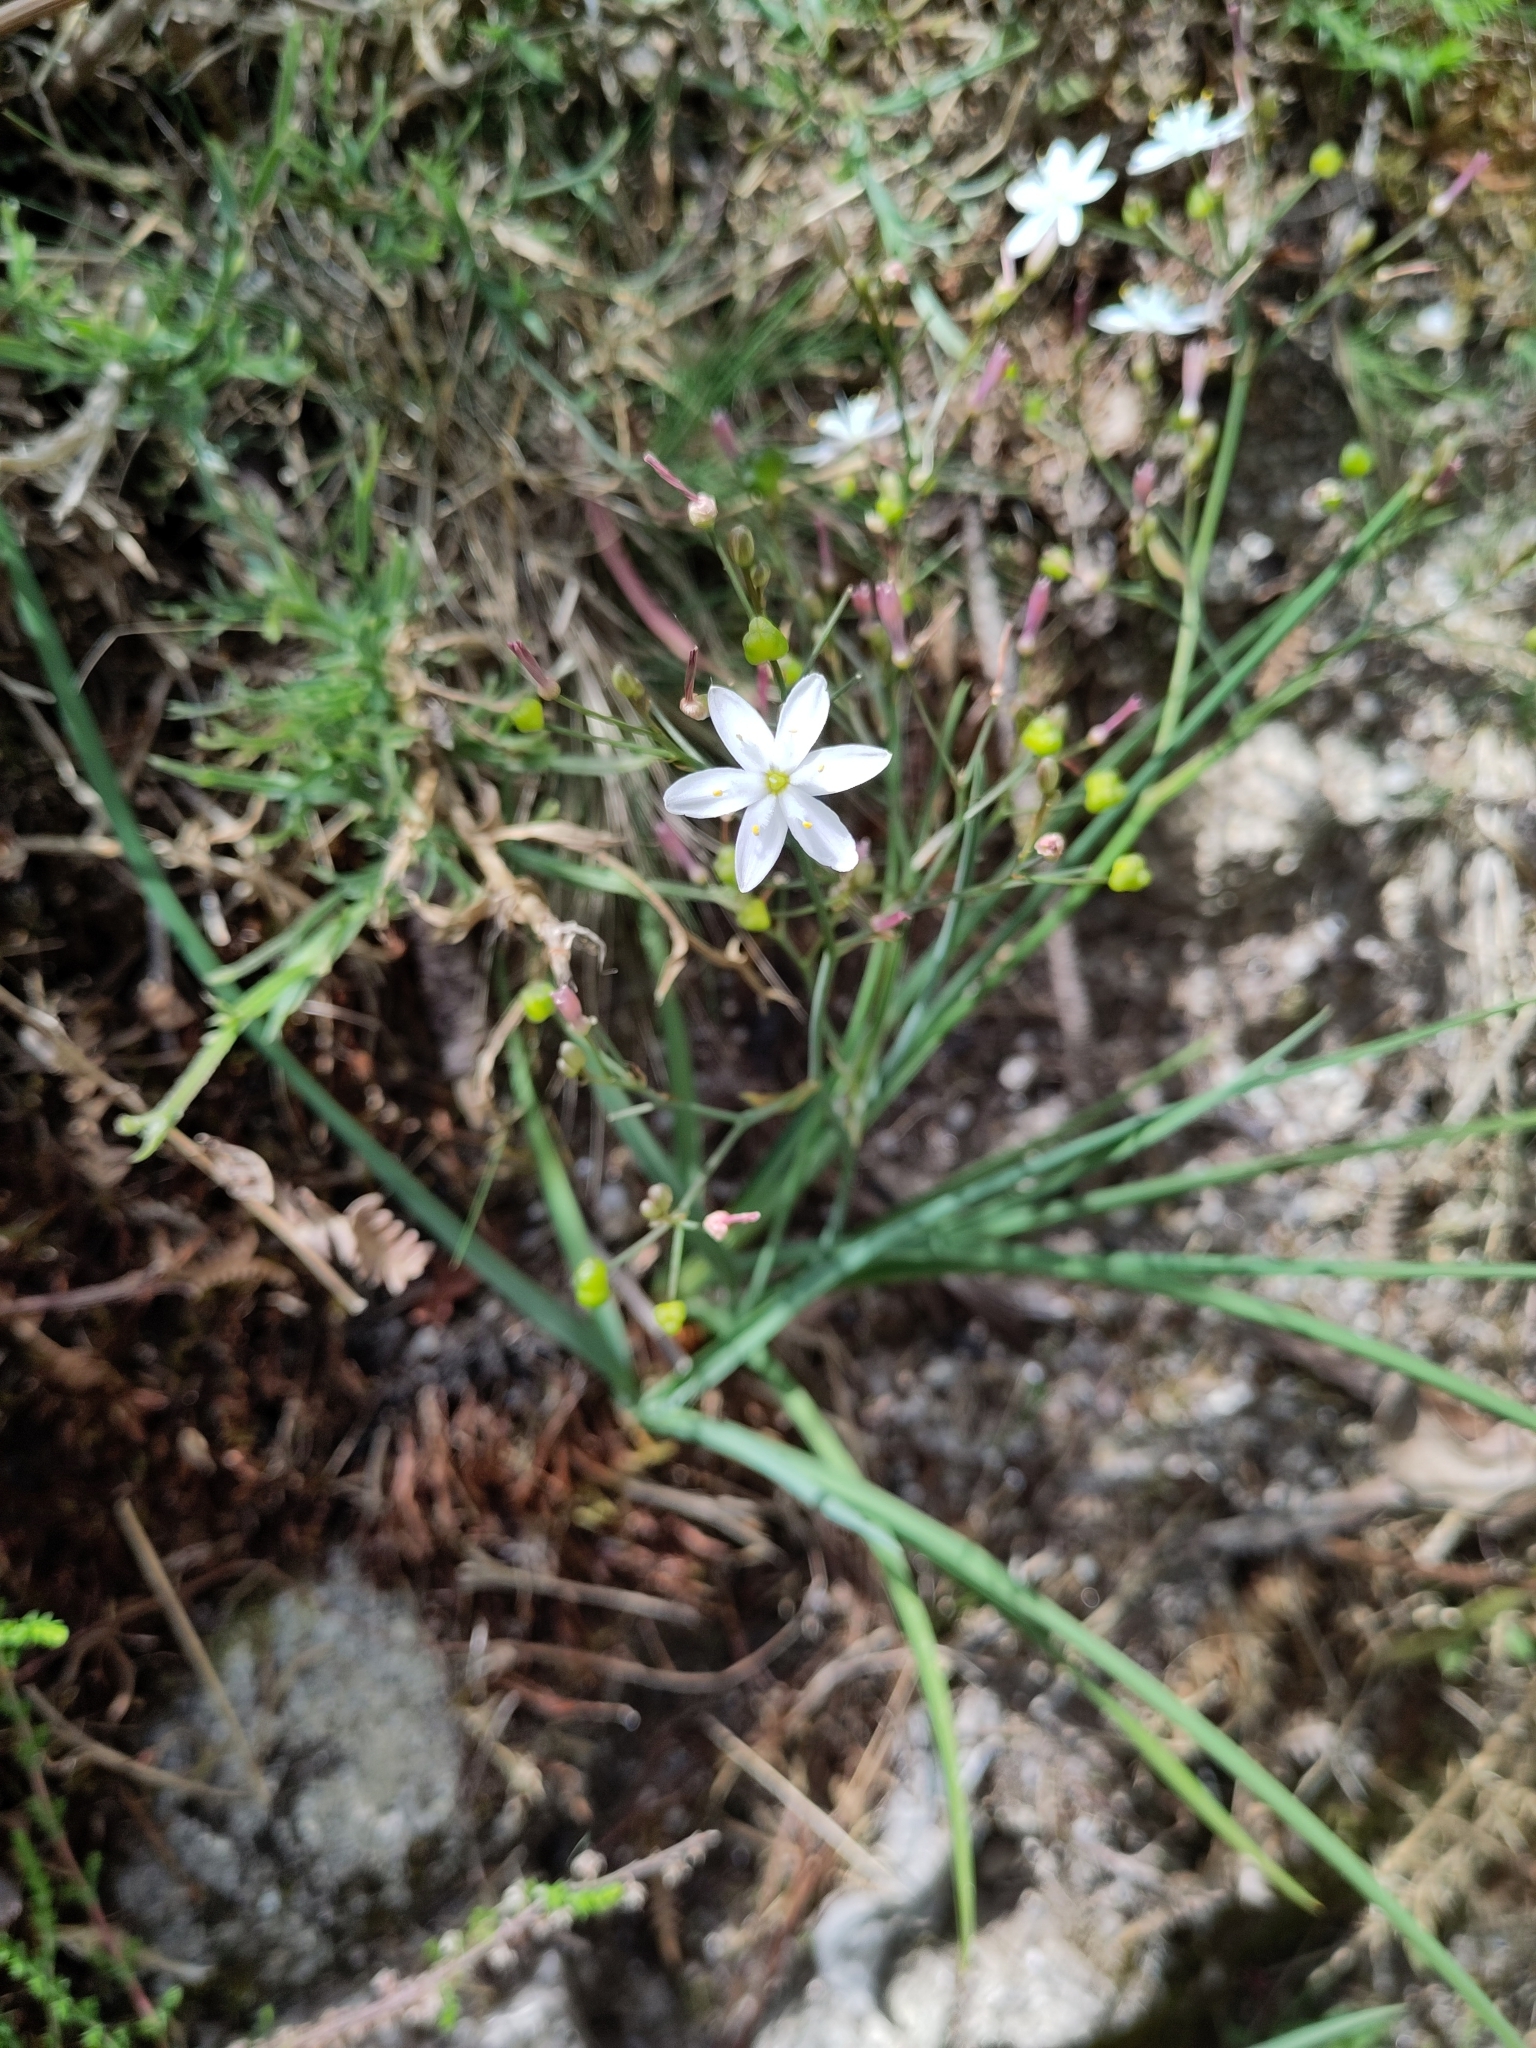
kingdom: Plantae
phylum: Tracheophyta
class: Liliopsida
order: Asparagales
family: Asphodelaceae
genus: Simethis
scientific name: Simethis mattiazzii
